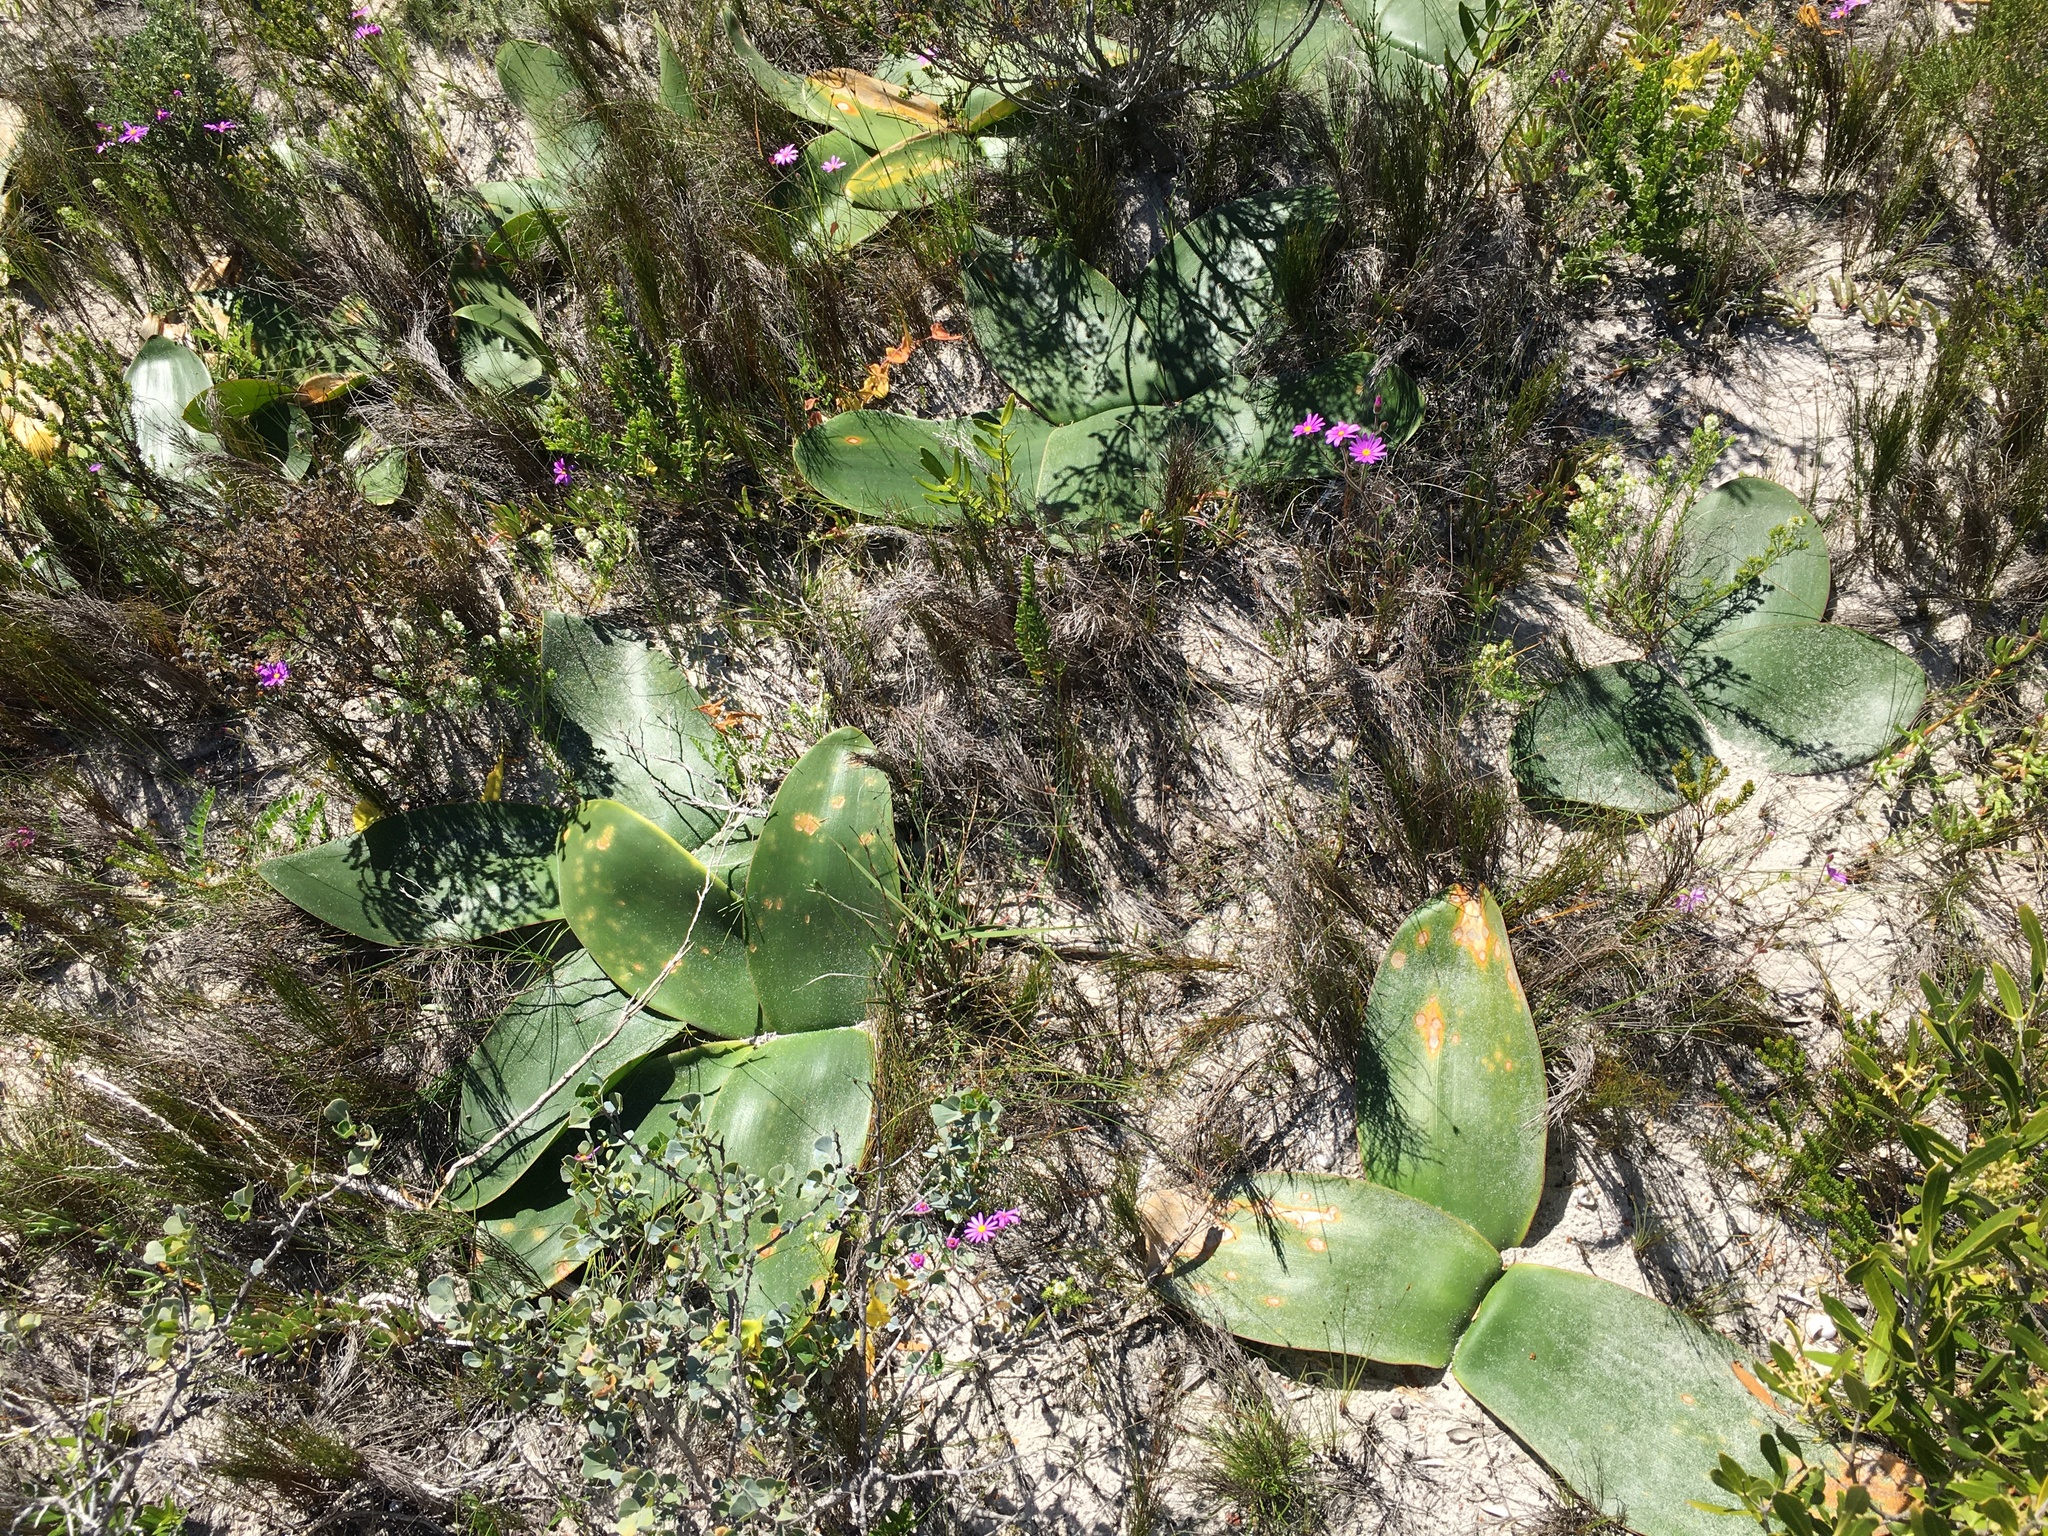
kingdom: Plantae
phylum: Tracheophyta
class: Liliopsida
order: Asparagales
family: Amaryllidaceae
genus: Brunsvigia
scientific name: Brunsvigia orientalis
